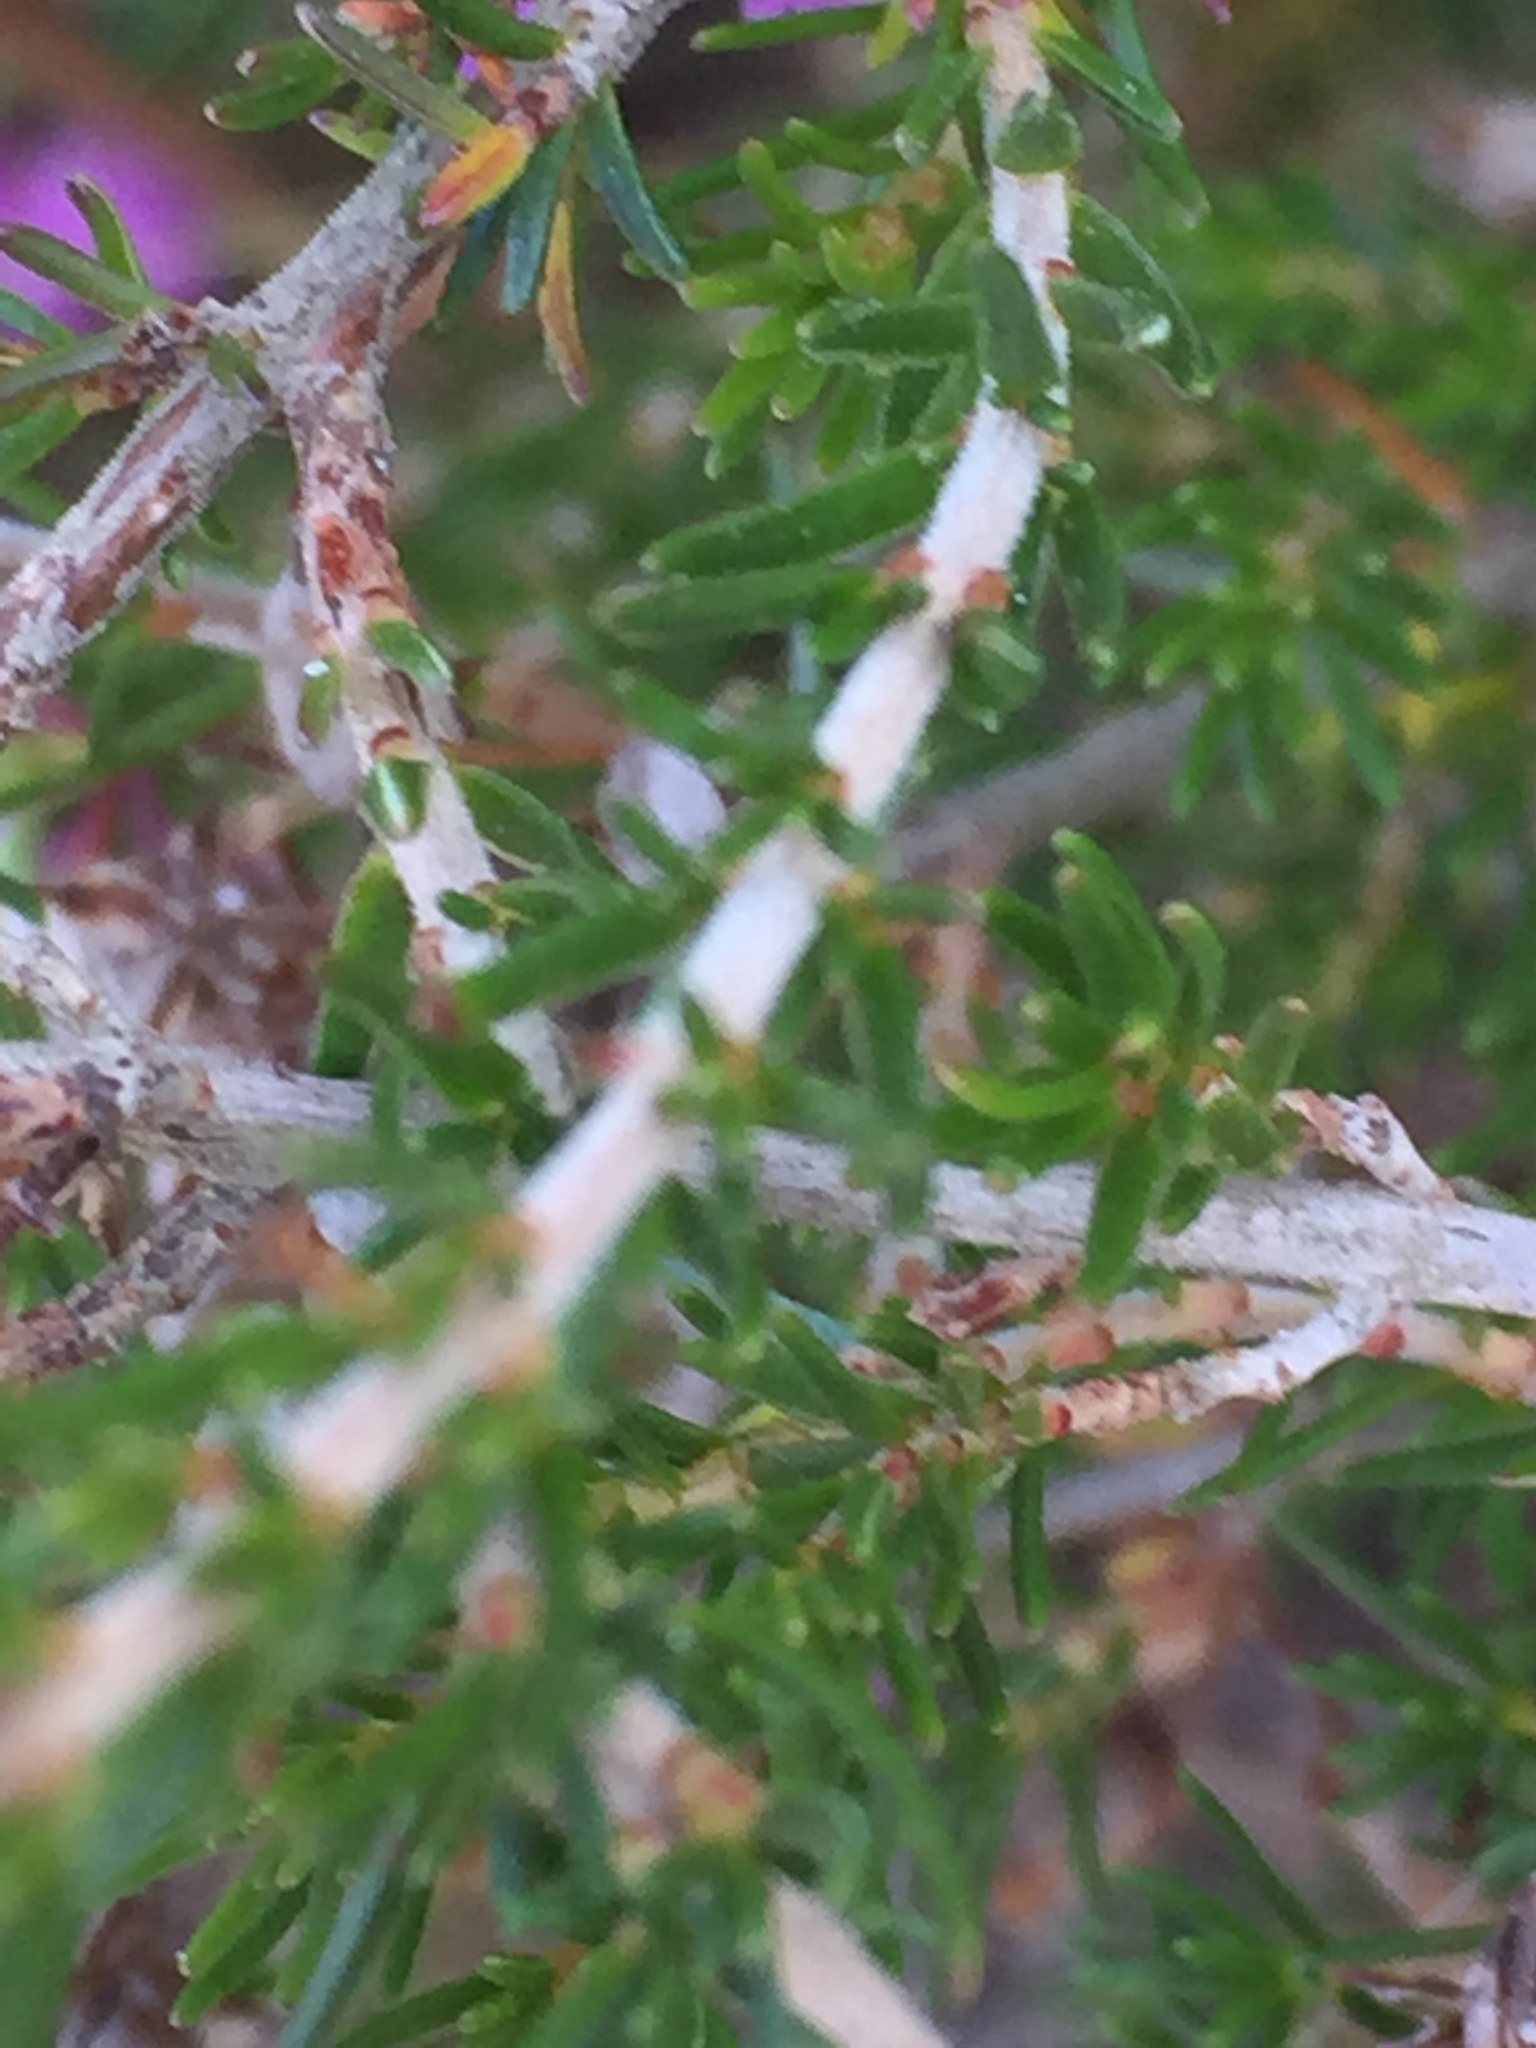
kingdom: Plantae
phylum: Tracheophyta
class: Magnoliopsida
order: Ericales
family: Ericaceae
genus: Erica
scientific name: Erica cinerea
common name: Bell heather
